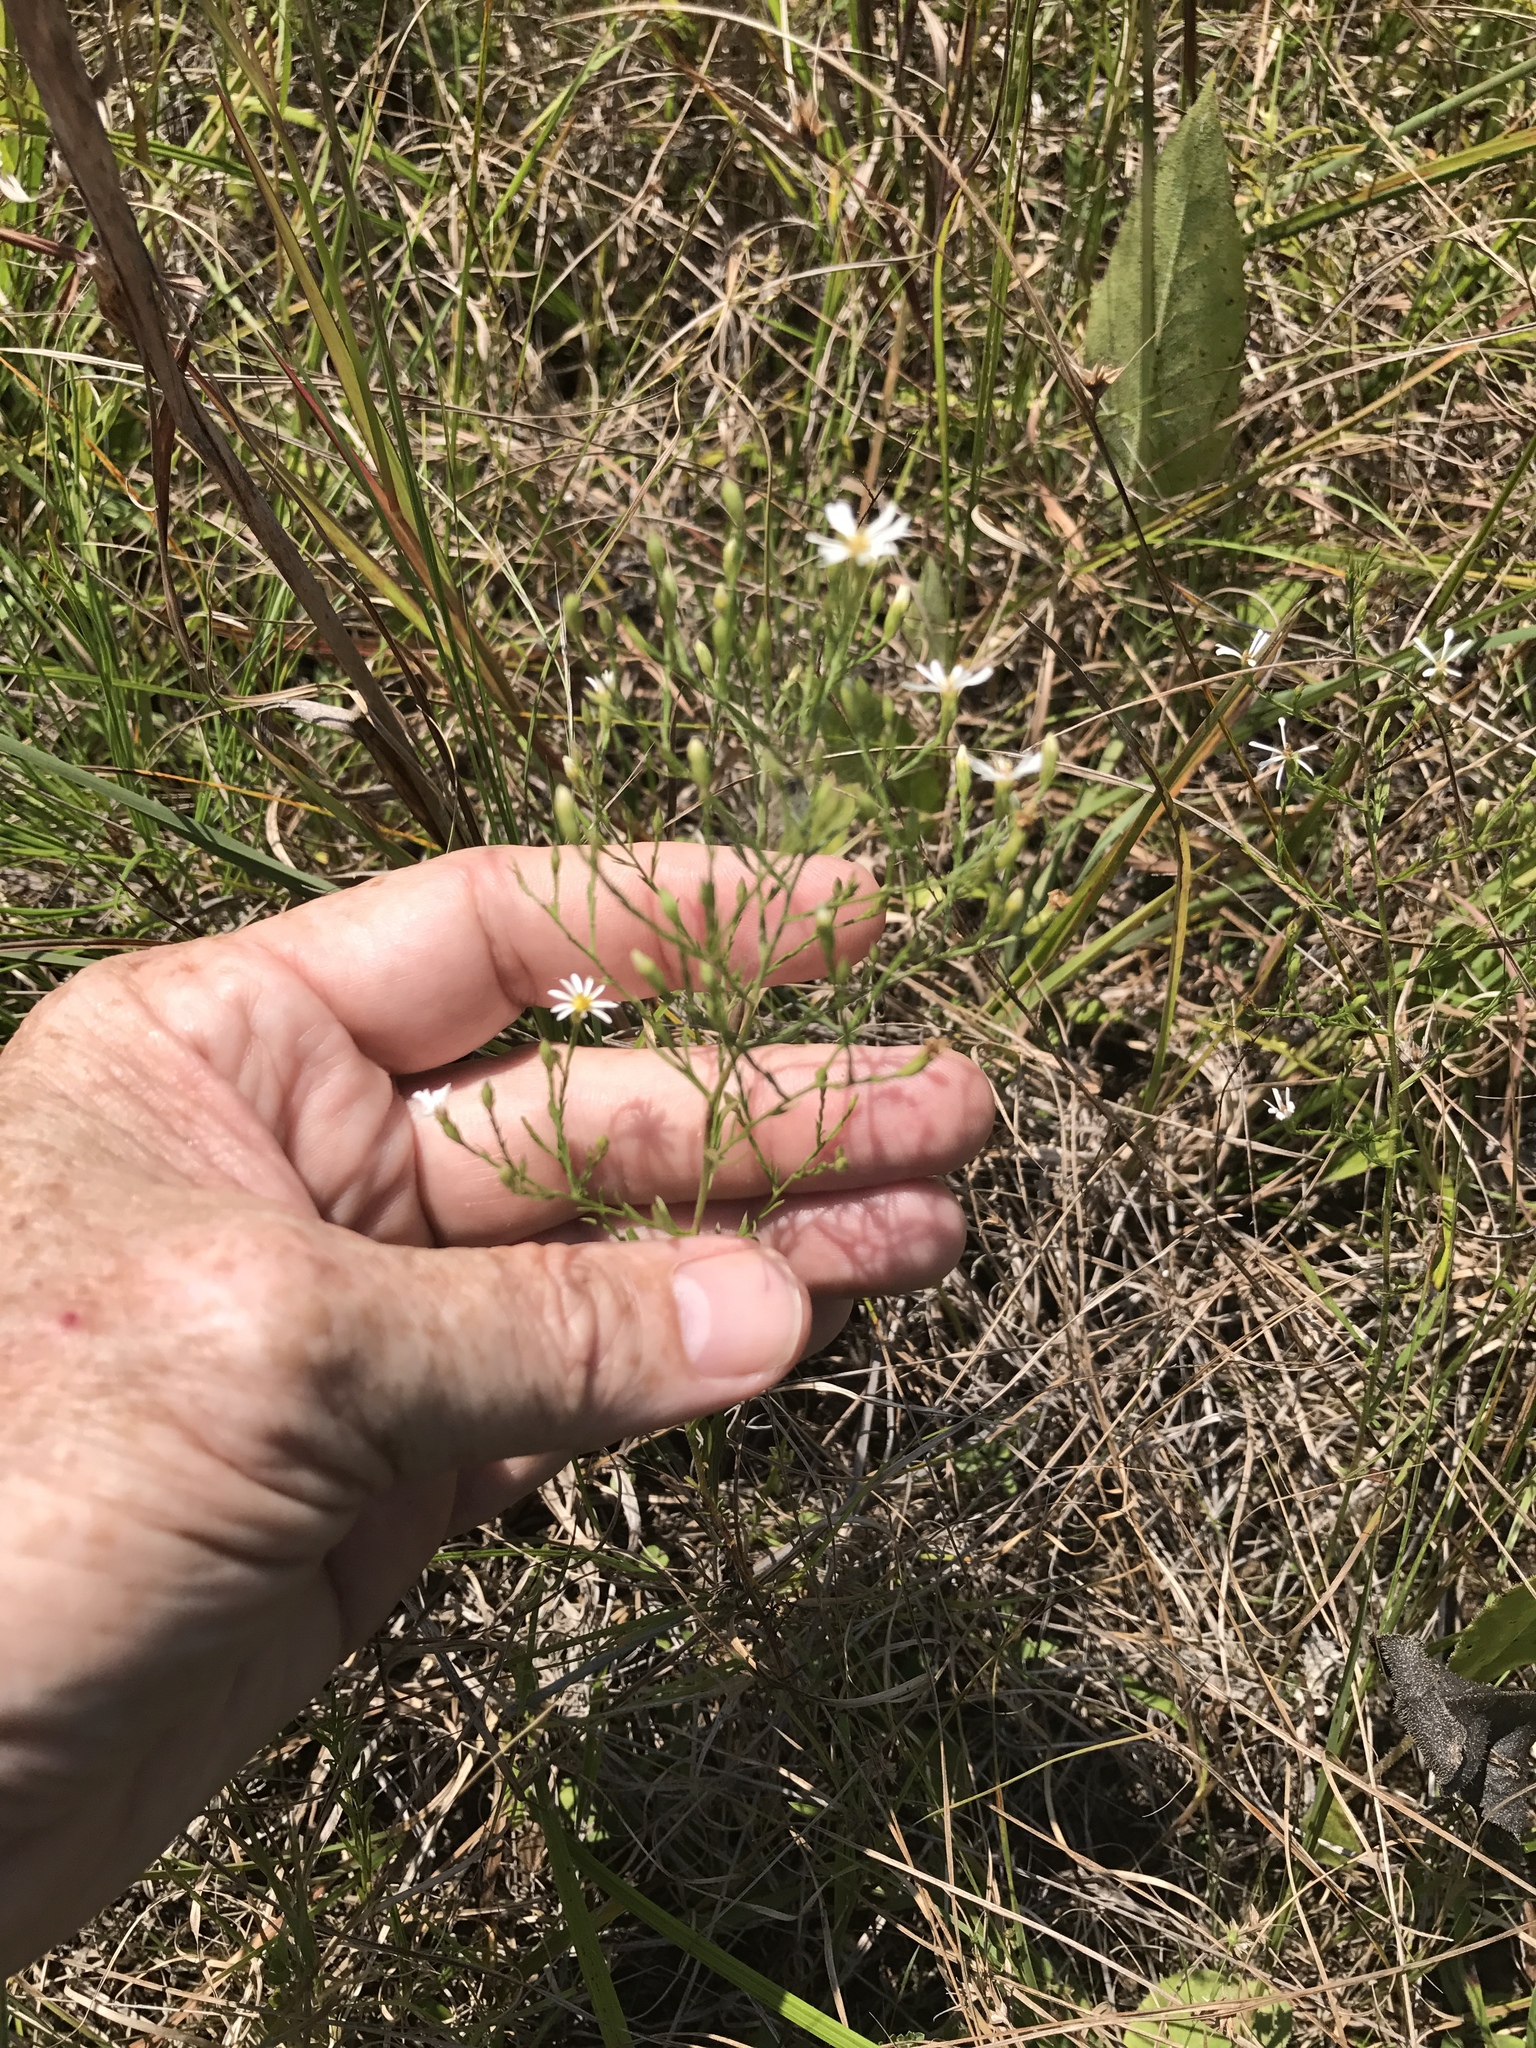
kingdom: Plantae
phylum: Tracheophyta
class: Magnoliopsida
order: Asterales
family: Asteraceae
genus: Symphyotrichum
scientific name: Symphyotrichum depauperatum
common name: Serpentine aster
